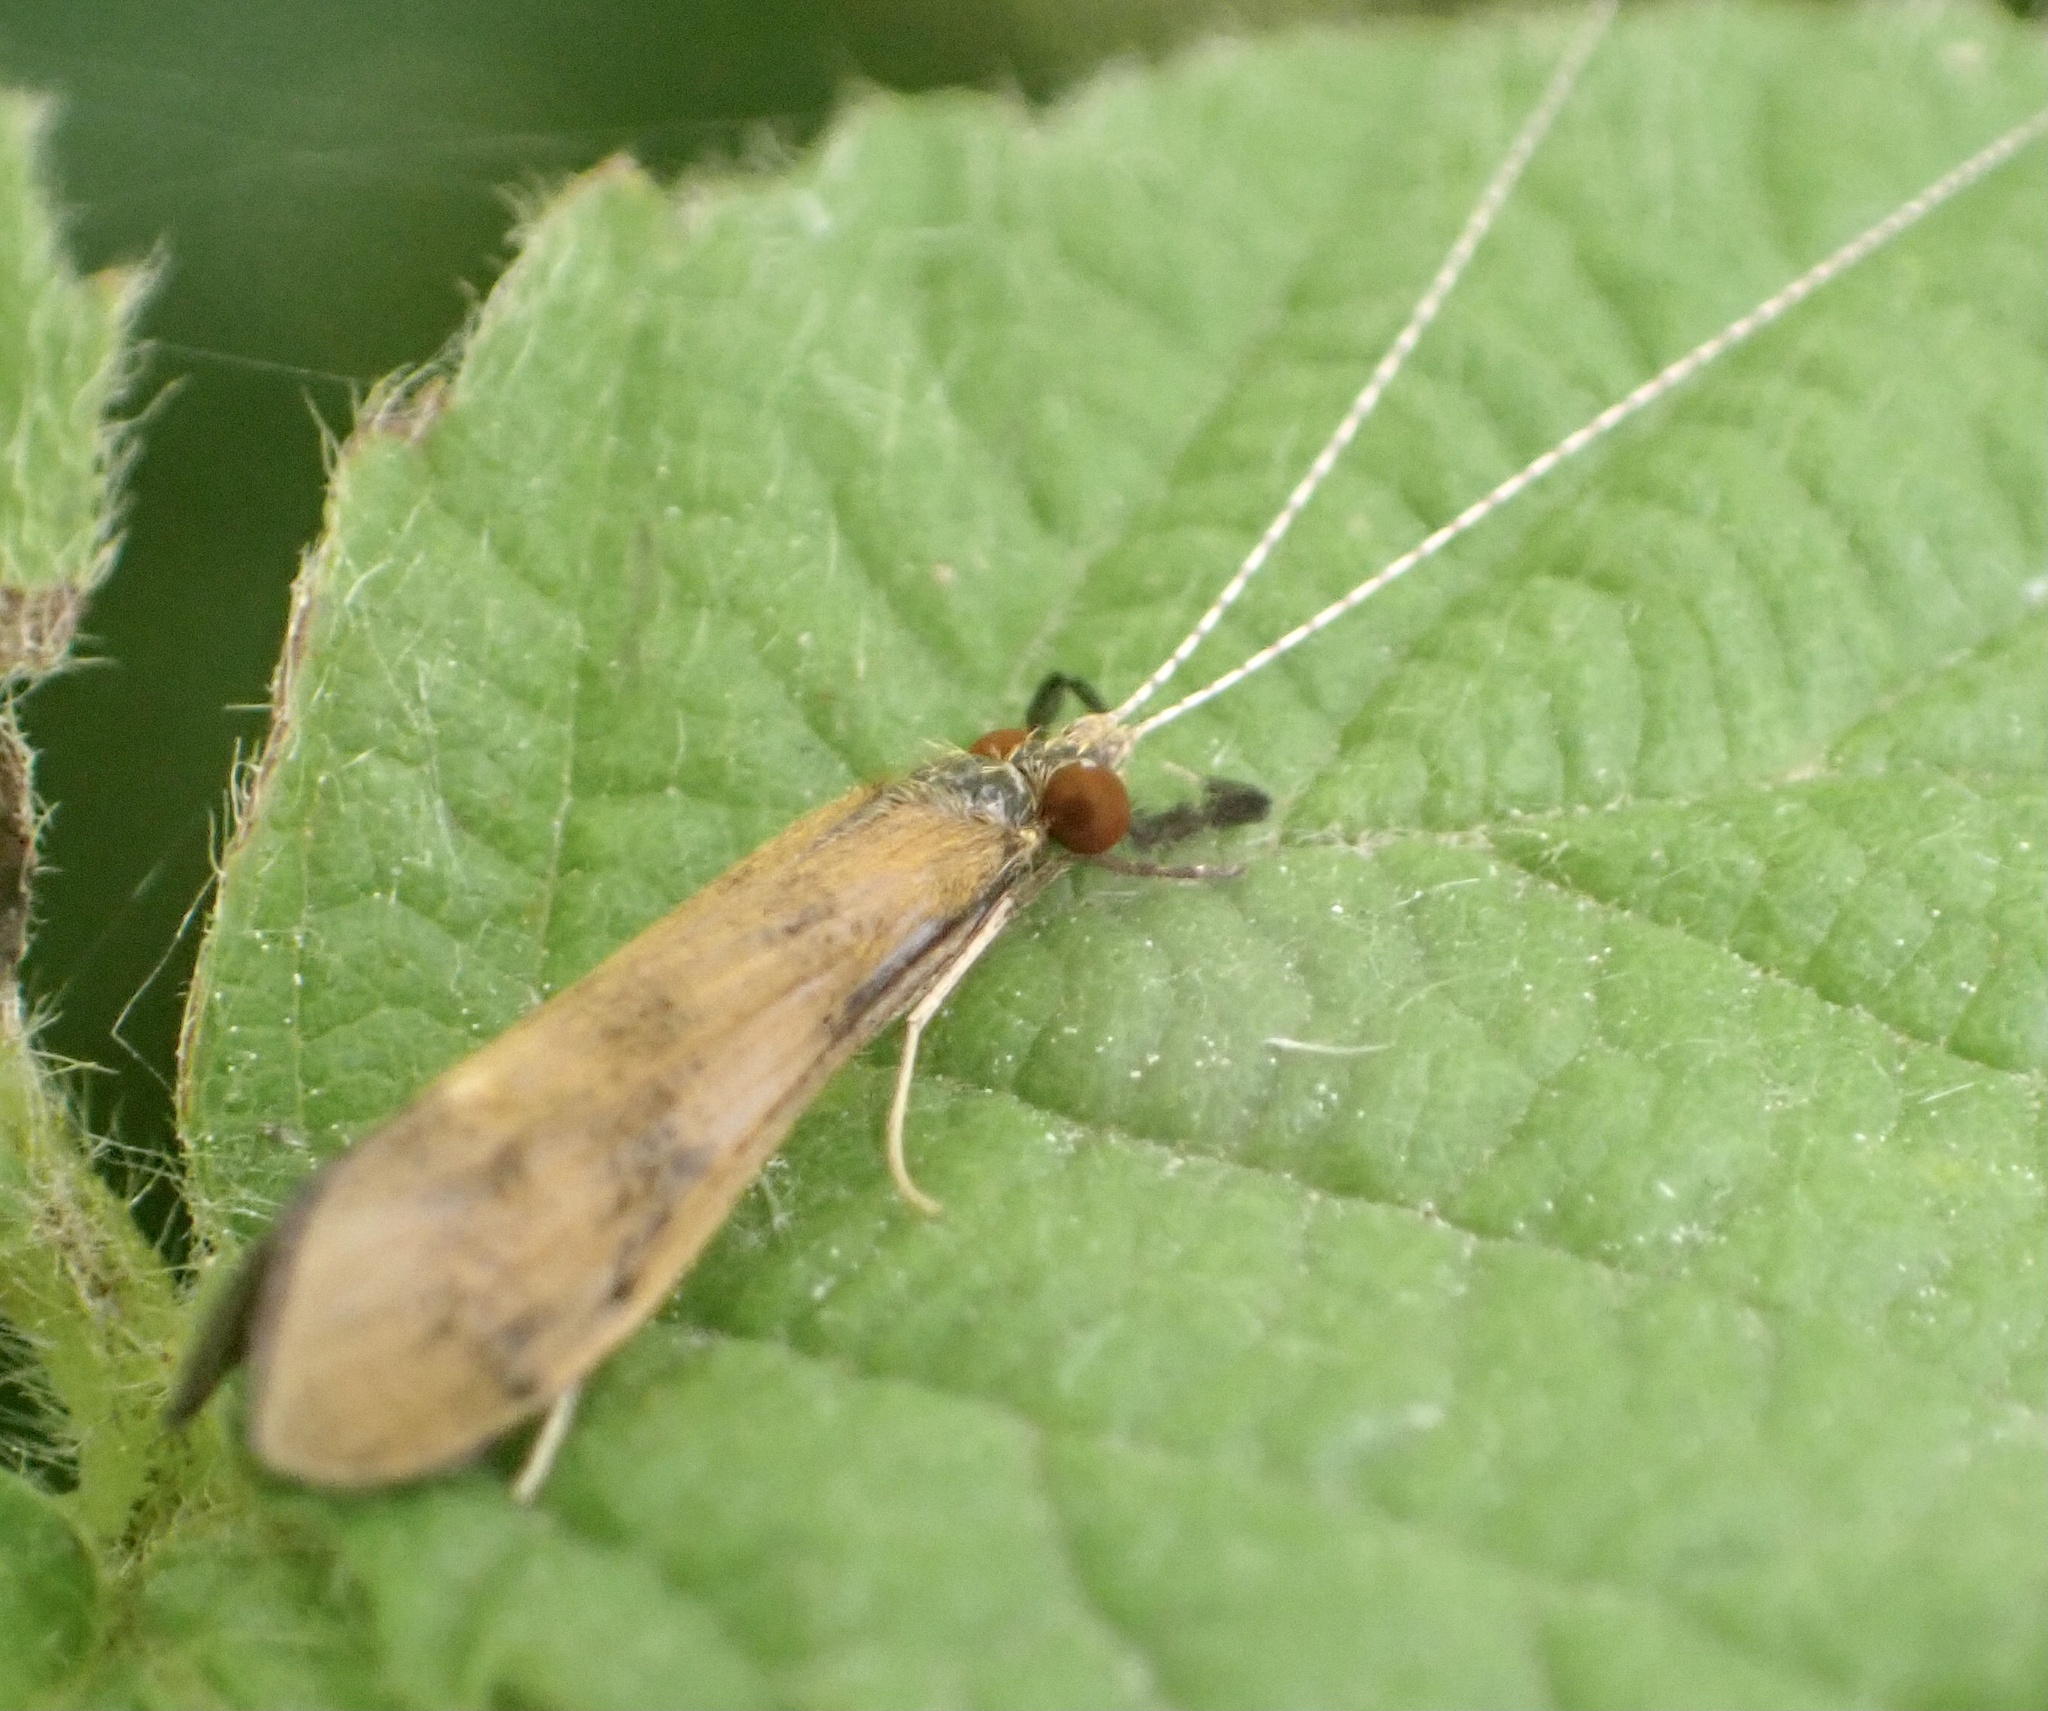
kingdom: Animalia
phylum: Arthropoda
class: Insecta
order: Trichoptera
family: Leptoceridae
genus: Mystacides
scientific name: Mystacides longicornis
